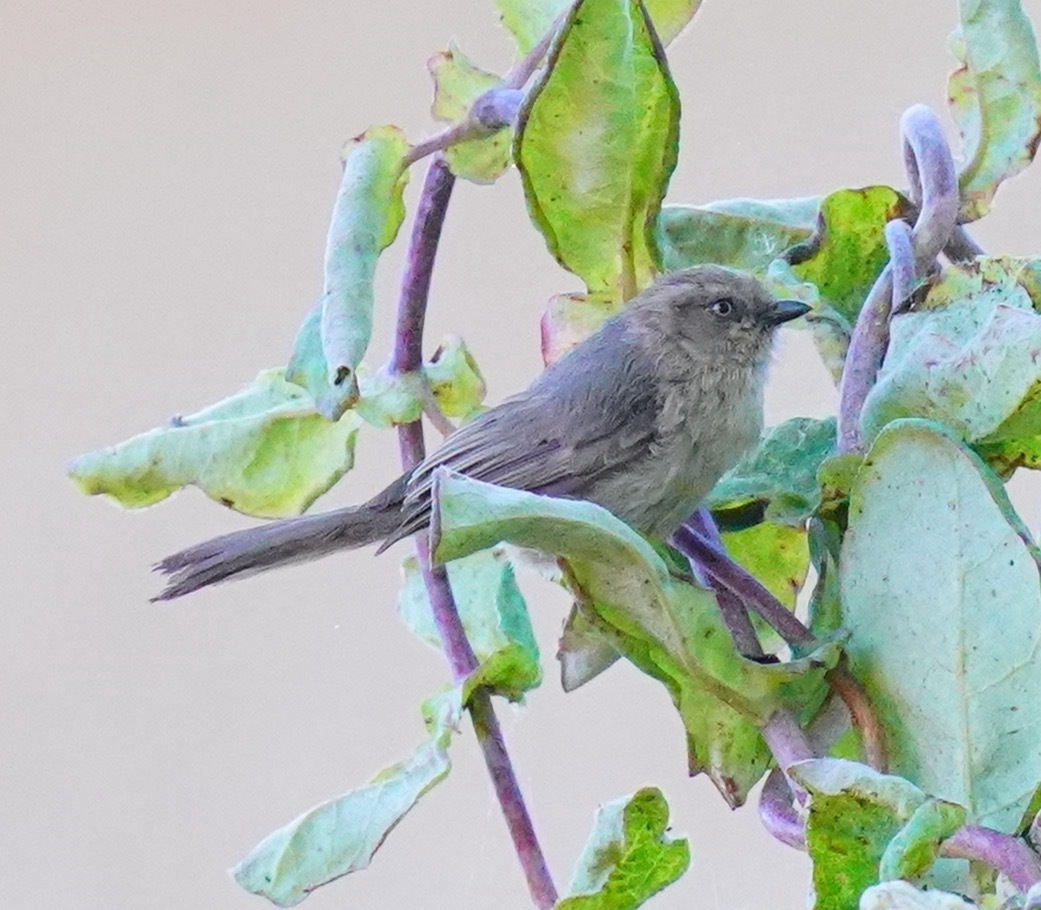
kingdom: Animalia
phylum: Chordata
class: Aves
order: Passeriformes
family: Aegithalidae
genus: Psaltriparus
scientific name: Psaltriparus minimus
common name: American bushtit
